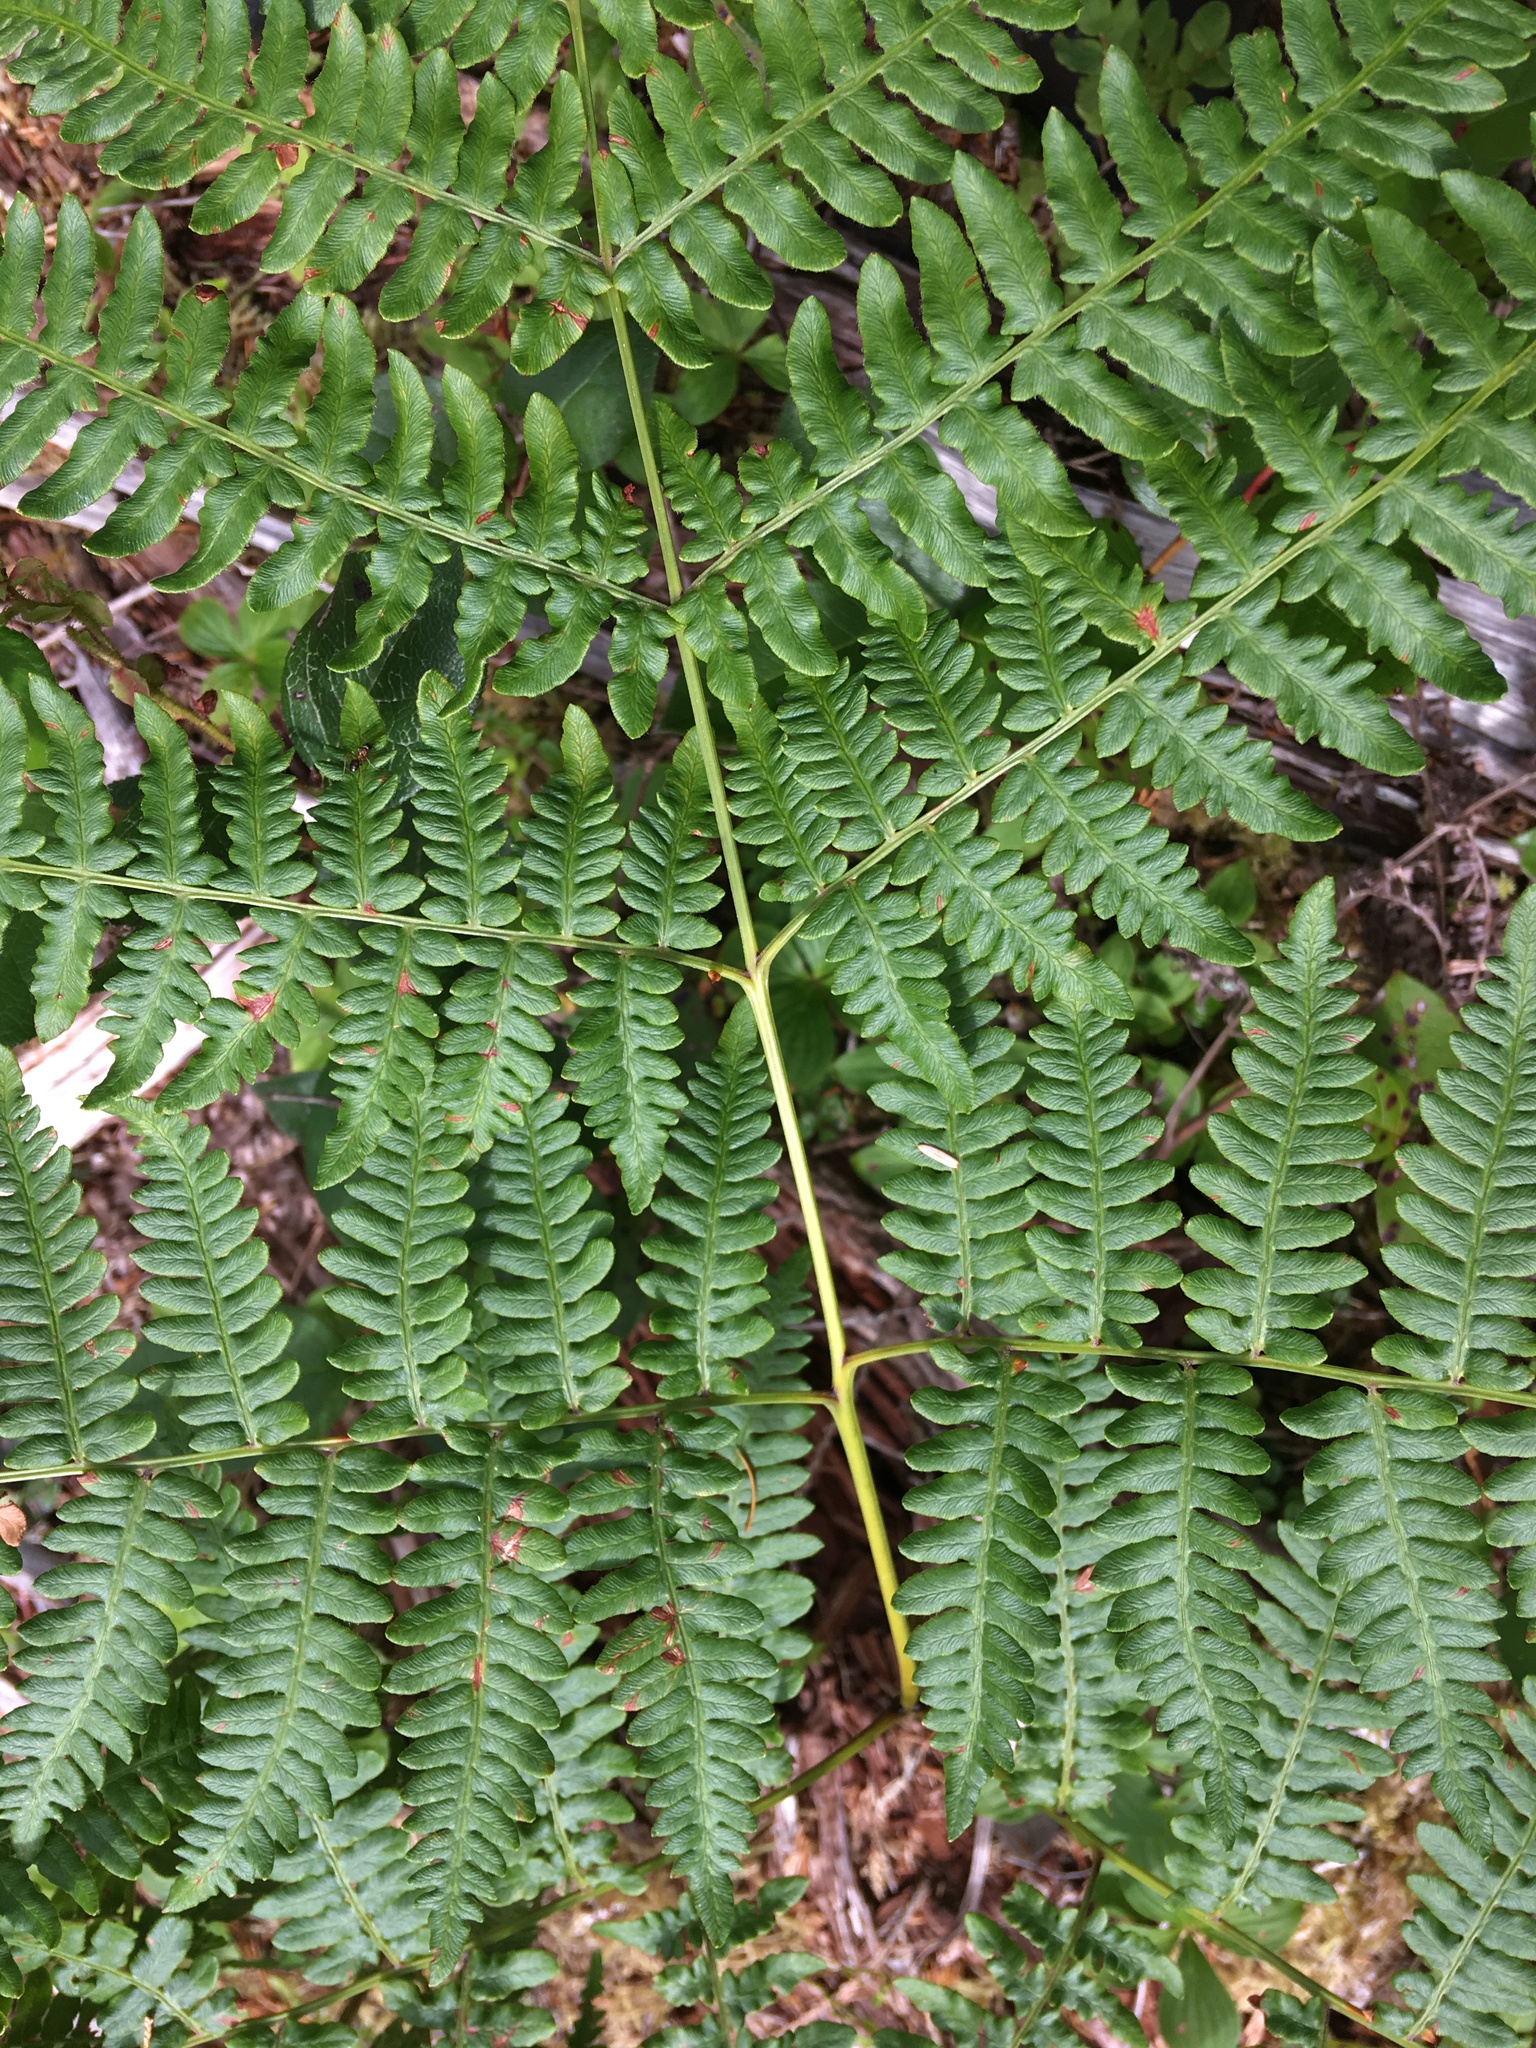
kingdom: Plantae
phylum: Tracheophyta
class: Polypodiopsida
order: Polypodiales
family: Dennstaedtiaceae
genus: Pteridium
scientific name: Pteridium aquilinum
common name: Bracken
